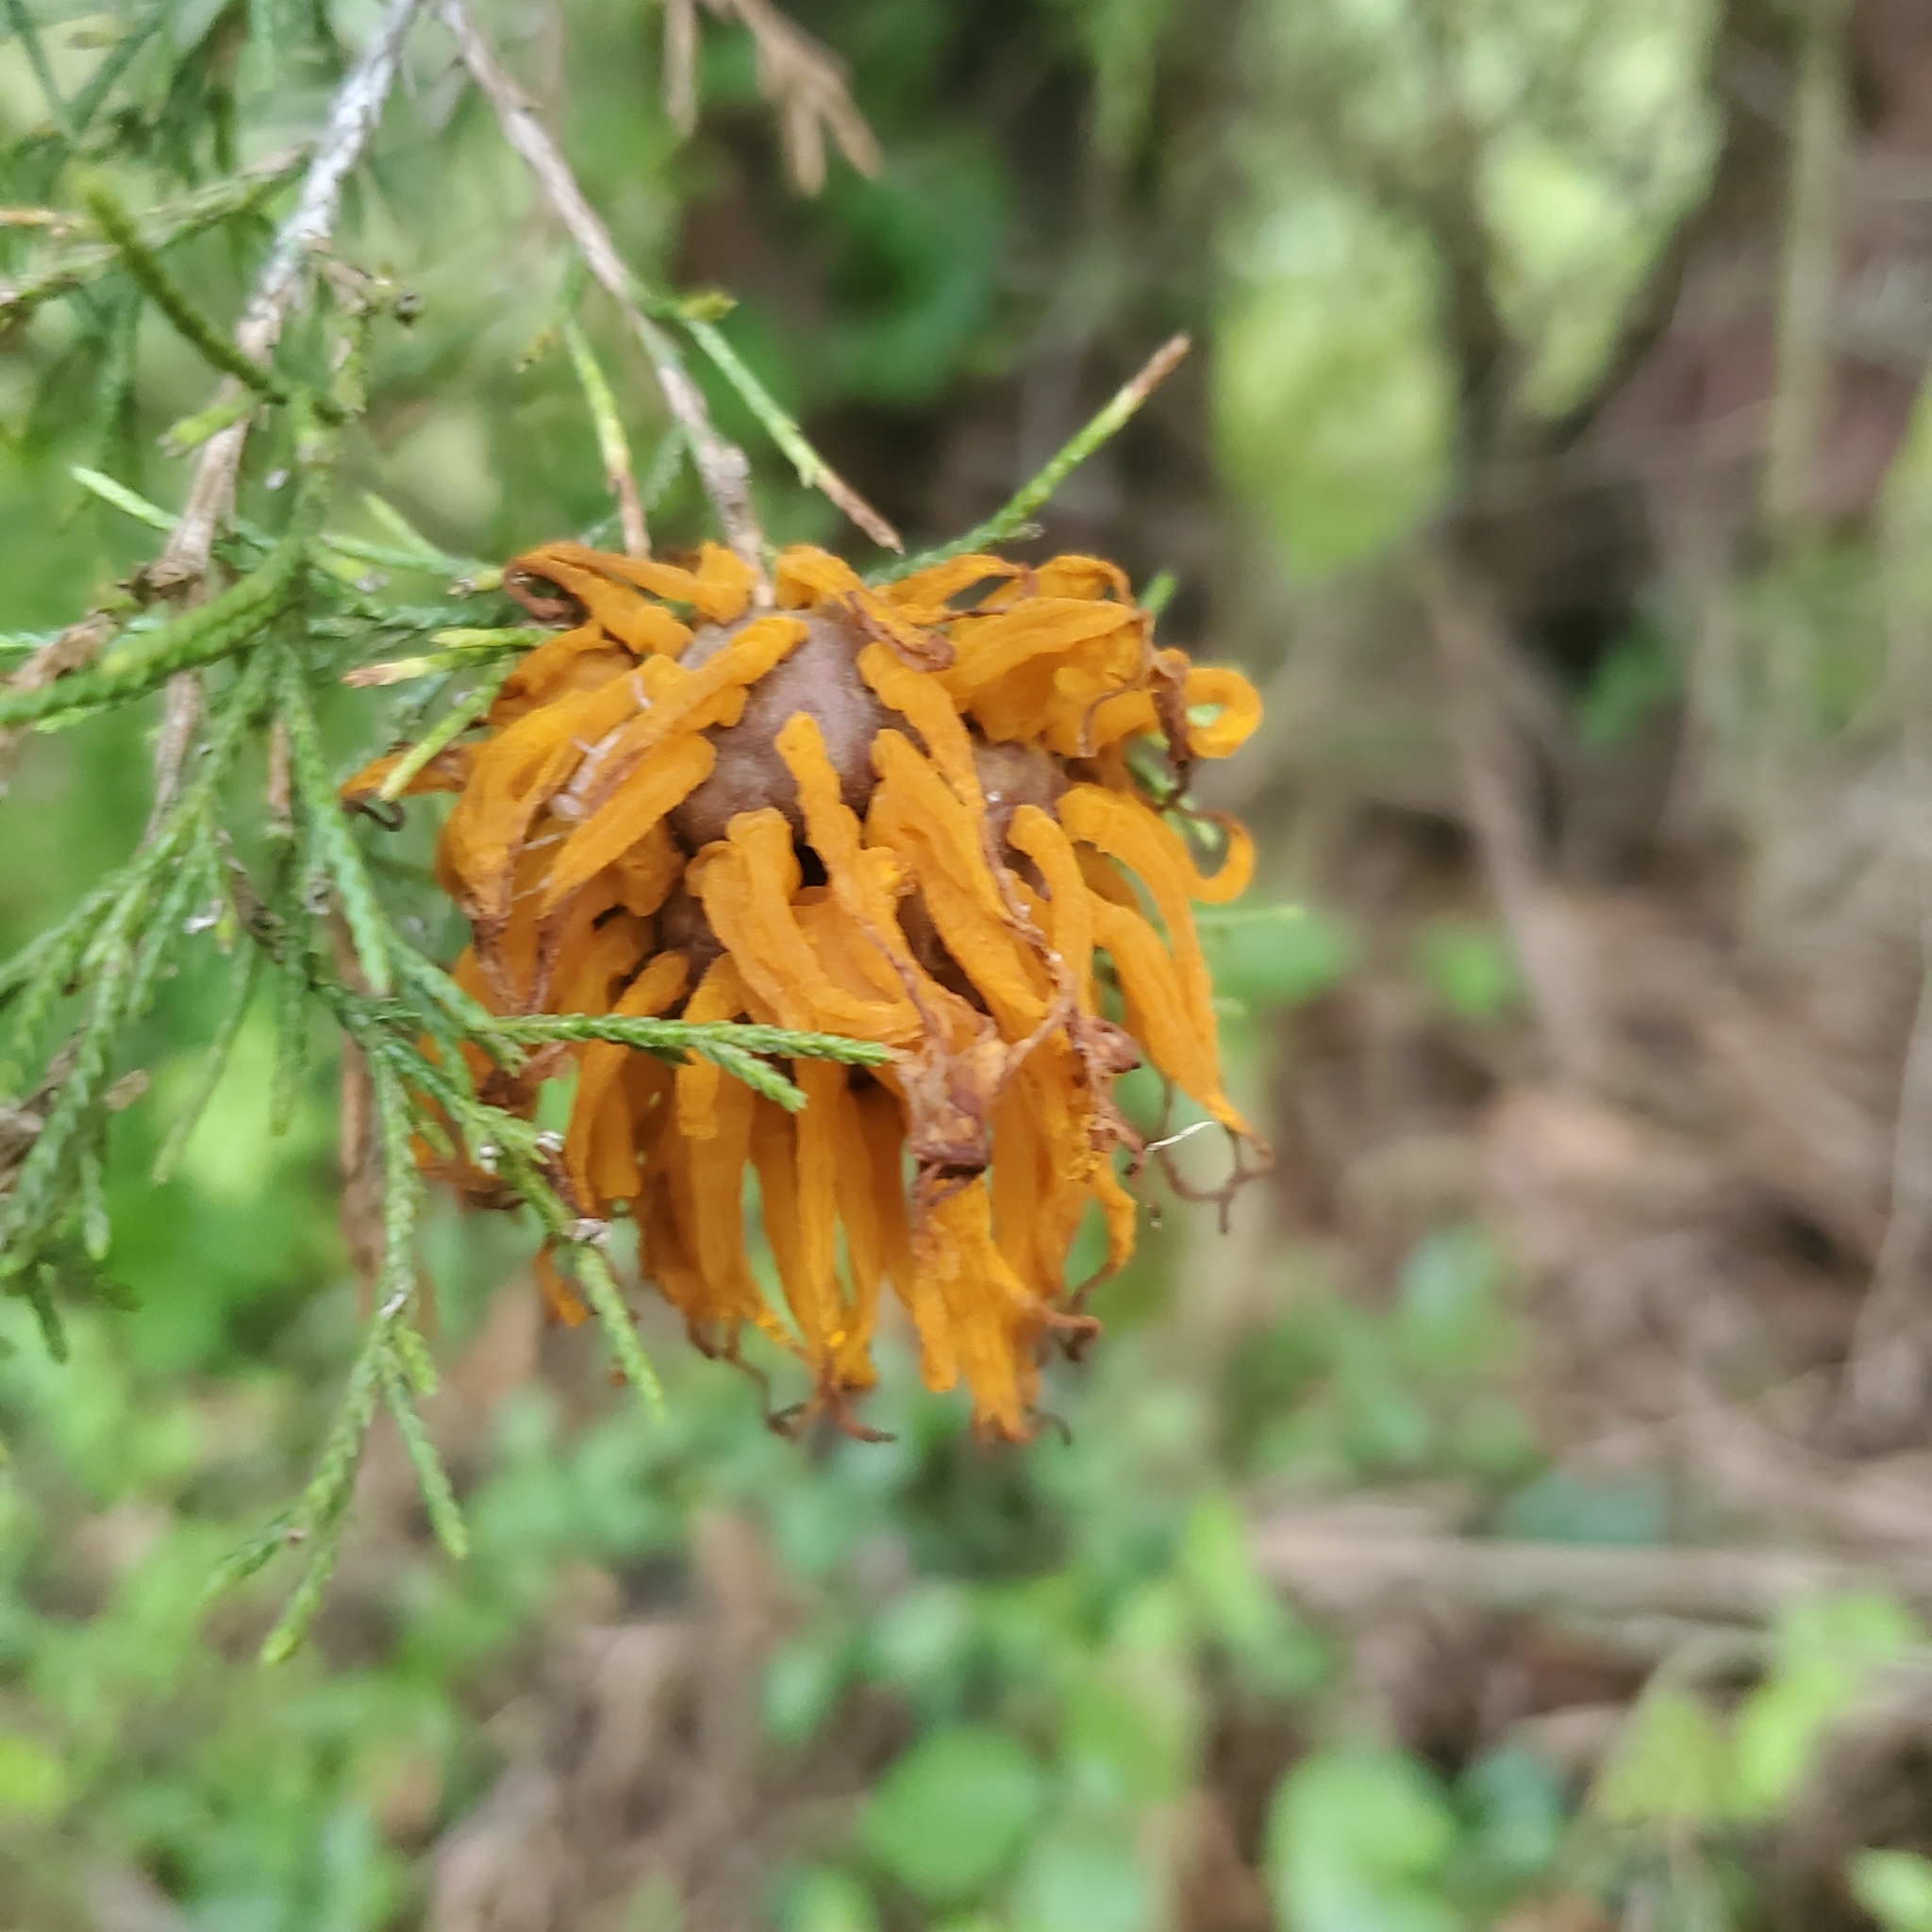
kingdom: Fungi
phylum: Basidiomycota
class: Pucciniomycetes
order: Pucciniales
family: Gymnosporangiaceae
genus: Gymnosporangium
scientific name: Gymnosporangium juniperi-virginianae
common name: Juniper-apple rust
